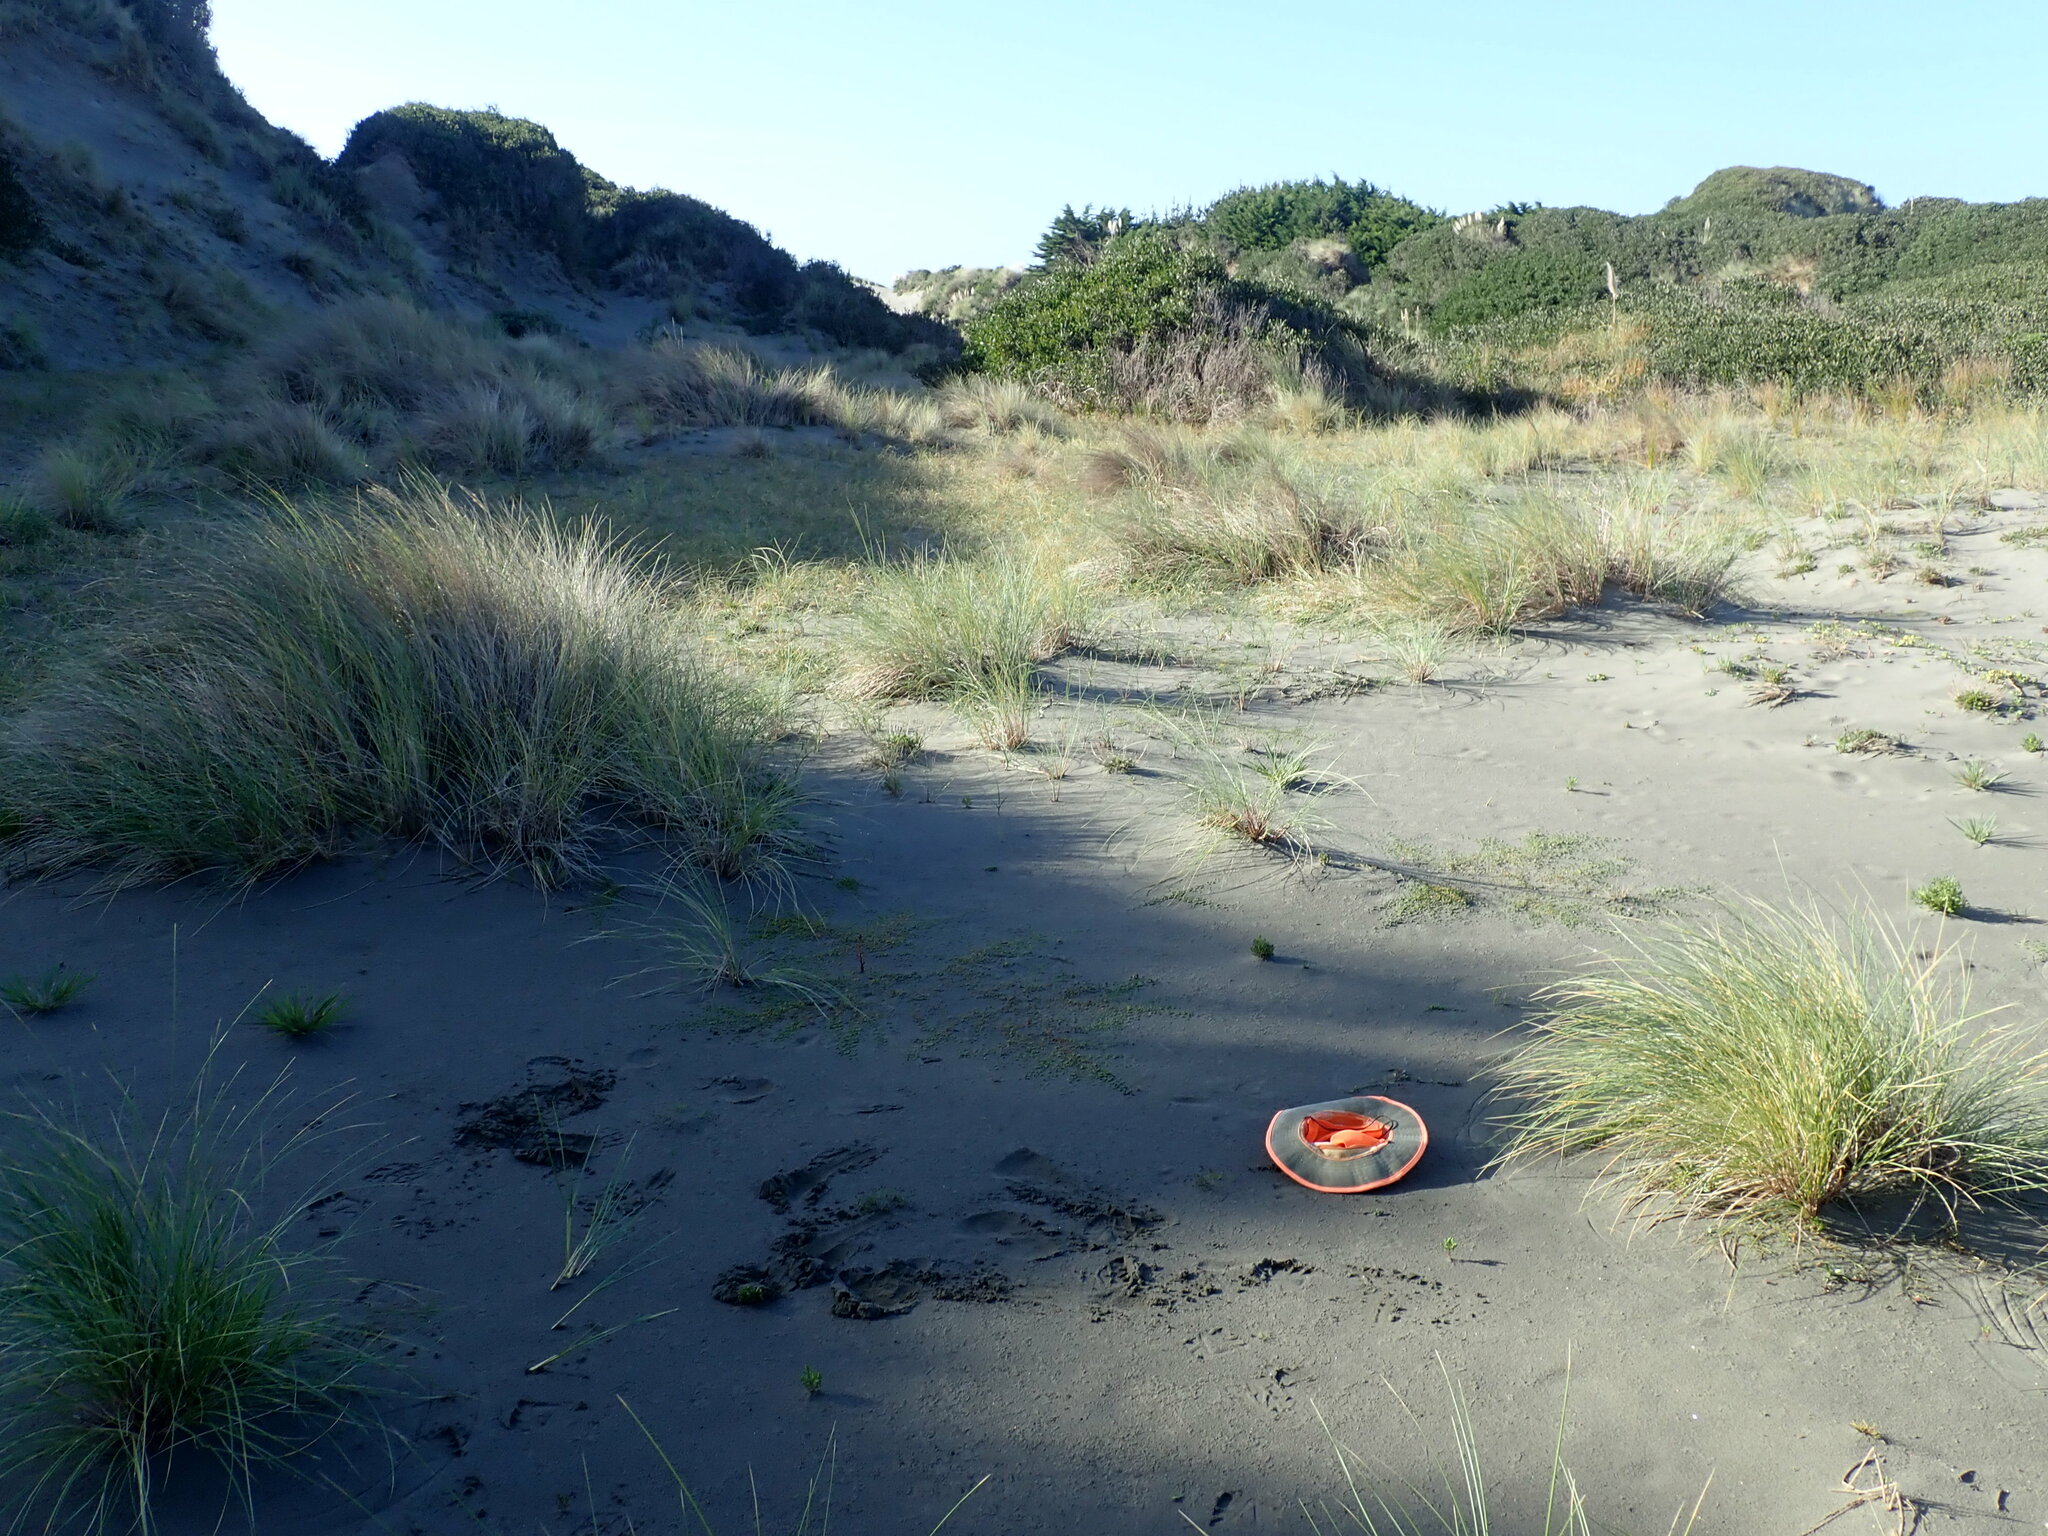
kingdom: Plantae
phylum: Tracheophyta
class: Magnoliopsida
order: Asterales
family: Campanulaceae
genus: Lobelia
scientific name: Lobelia anceps
